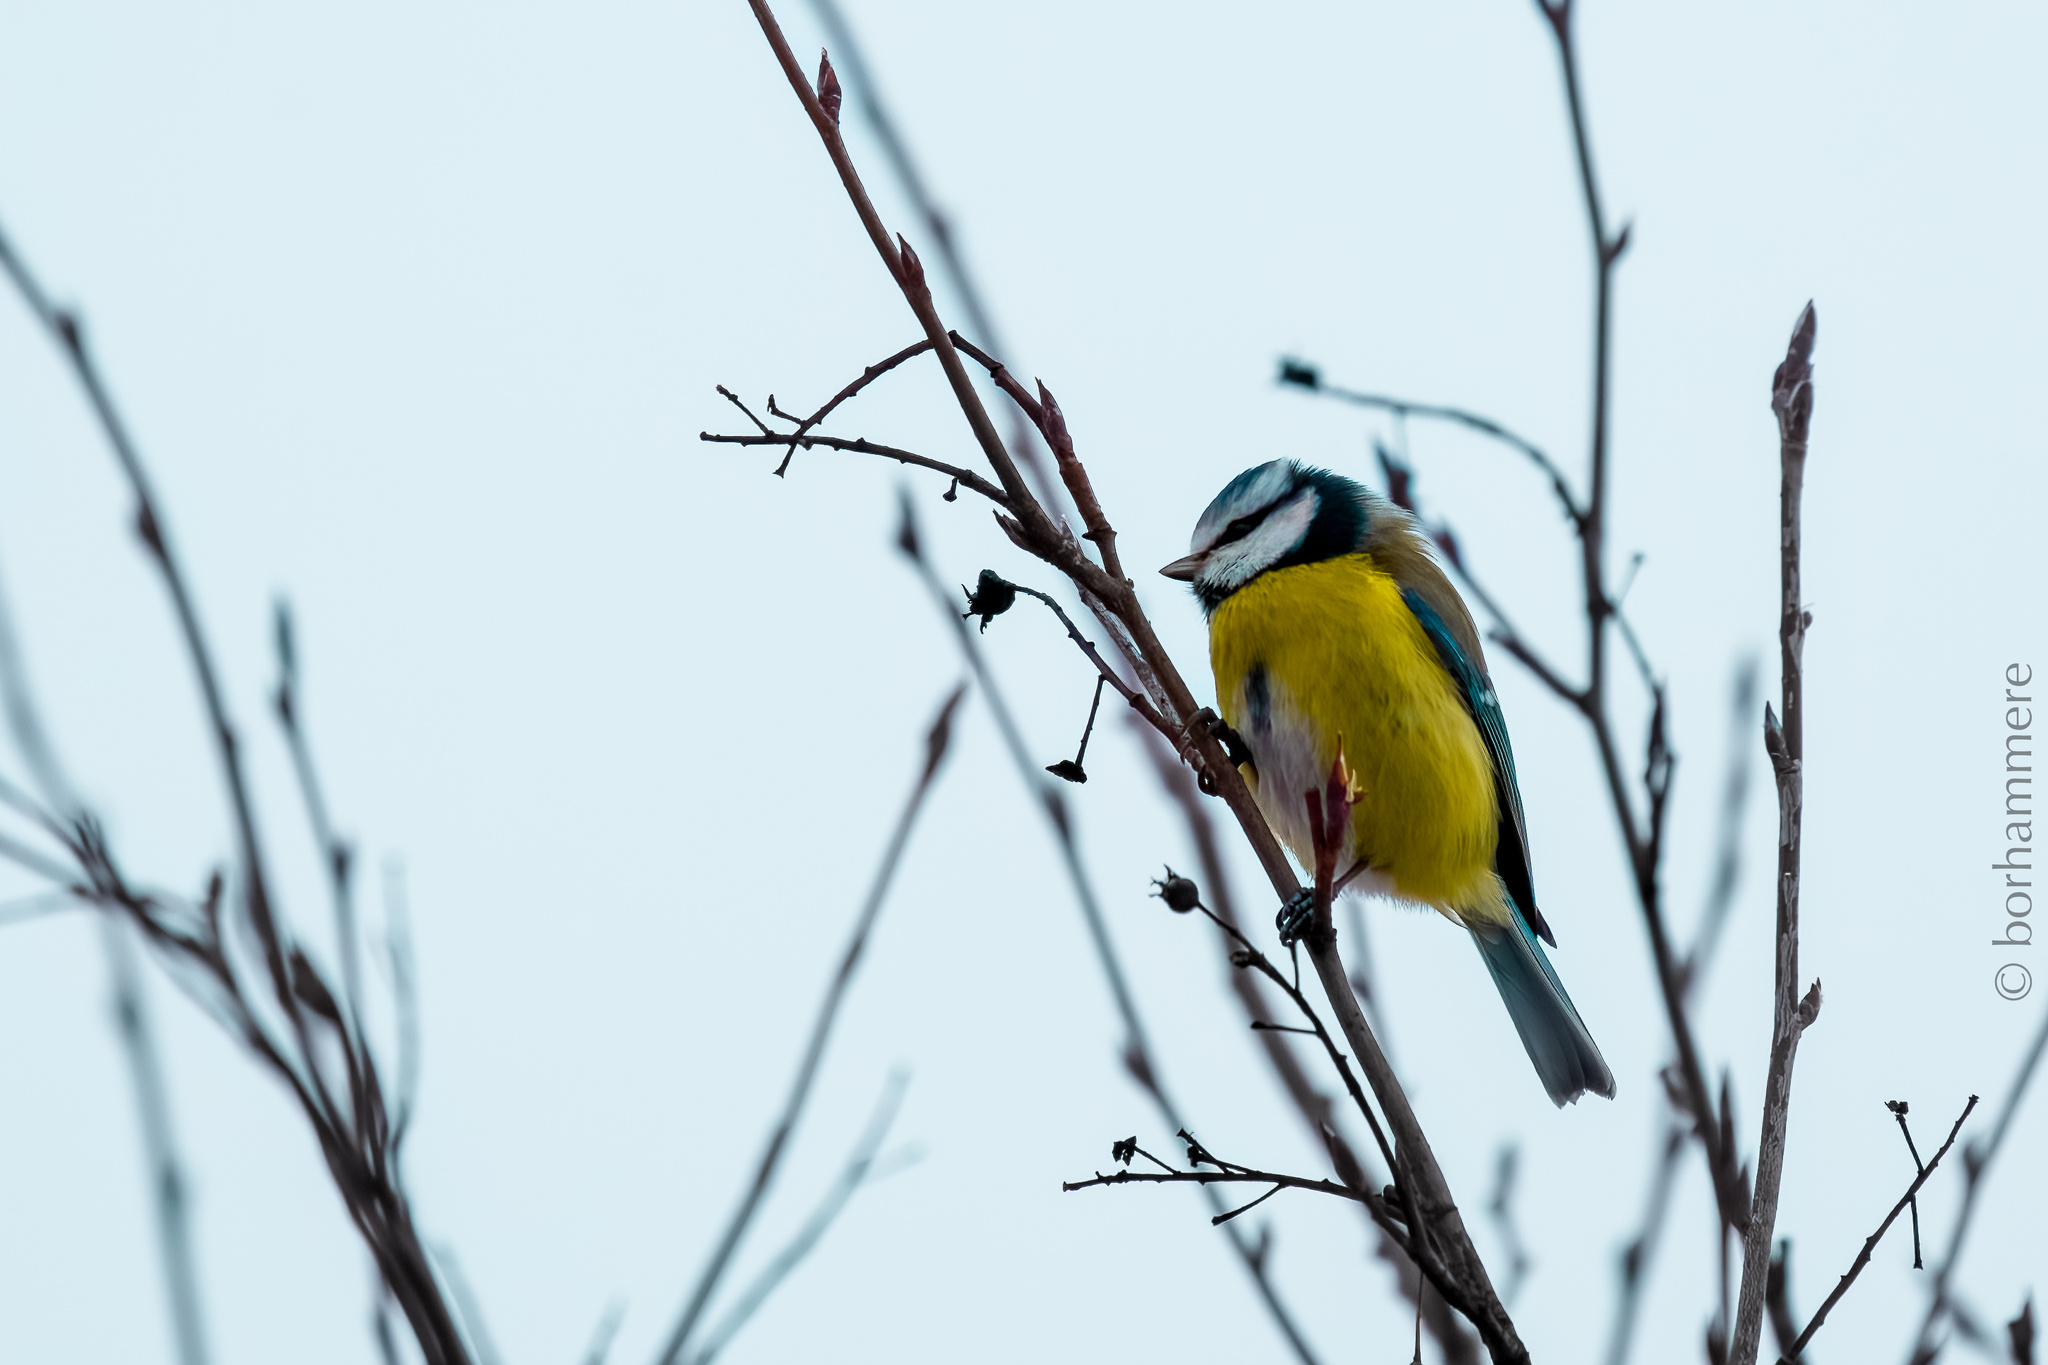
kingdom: Animalia
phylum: Chordata
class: Aves
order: Passeriformes
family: Paridae
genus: Cyanistes
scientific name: Cyanistes caeruleus
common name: Eurasian blue tit
